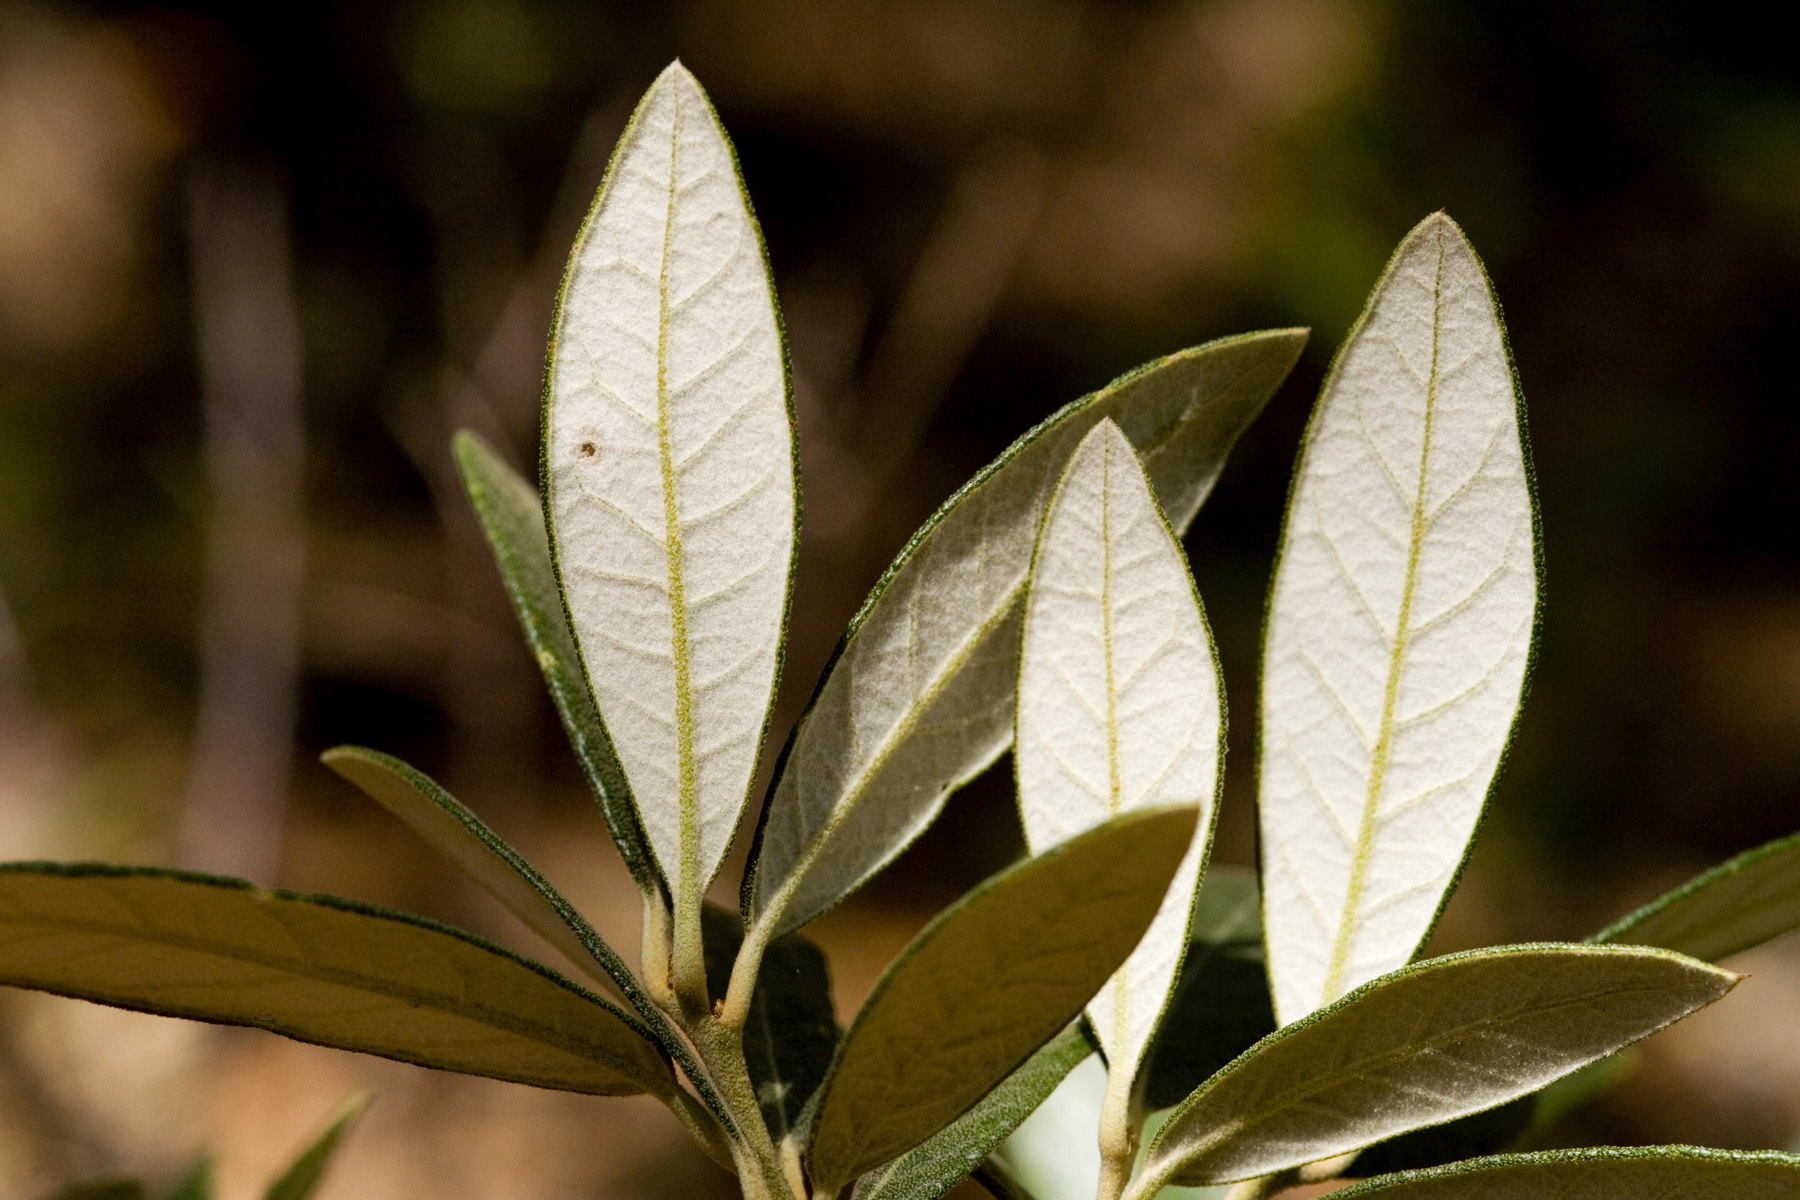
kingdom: Plantae
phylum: Tracheophyta
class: Magnoliopsida
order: Fagales
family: Fagaceae
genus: Quercus
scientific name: Quercus hypoleucoides
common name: Silverleaf oak
